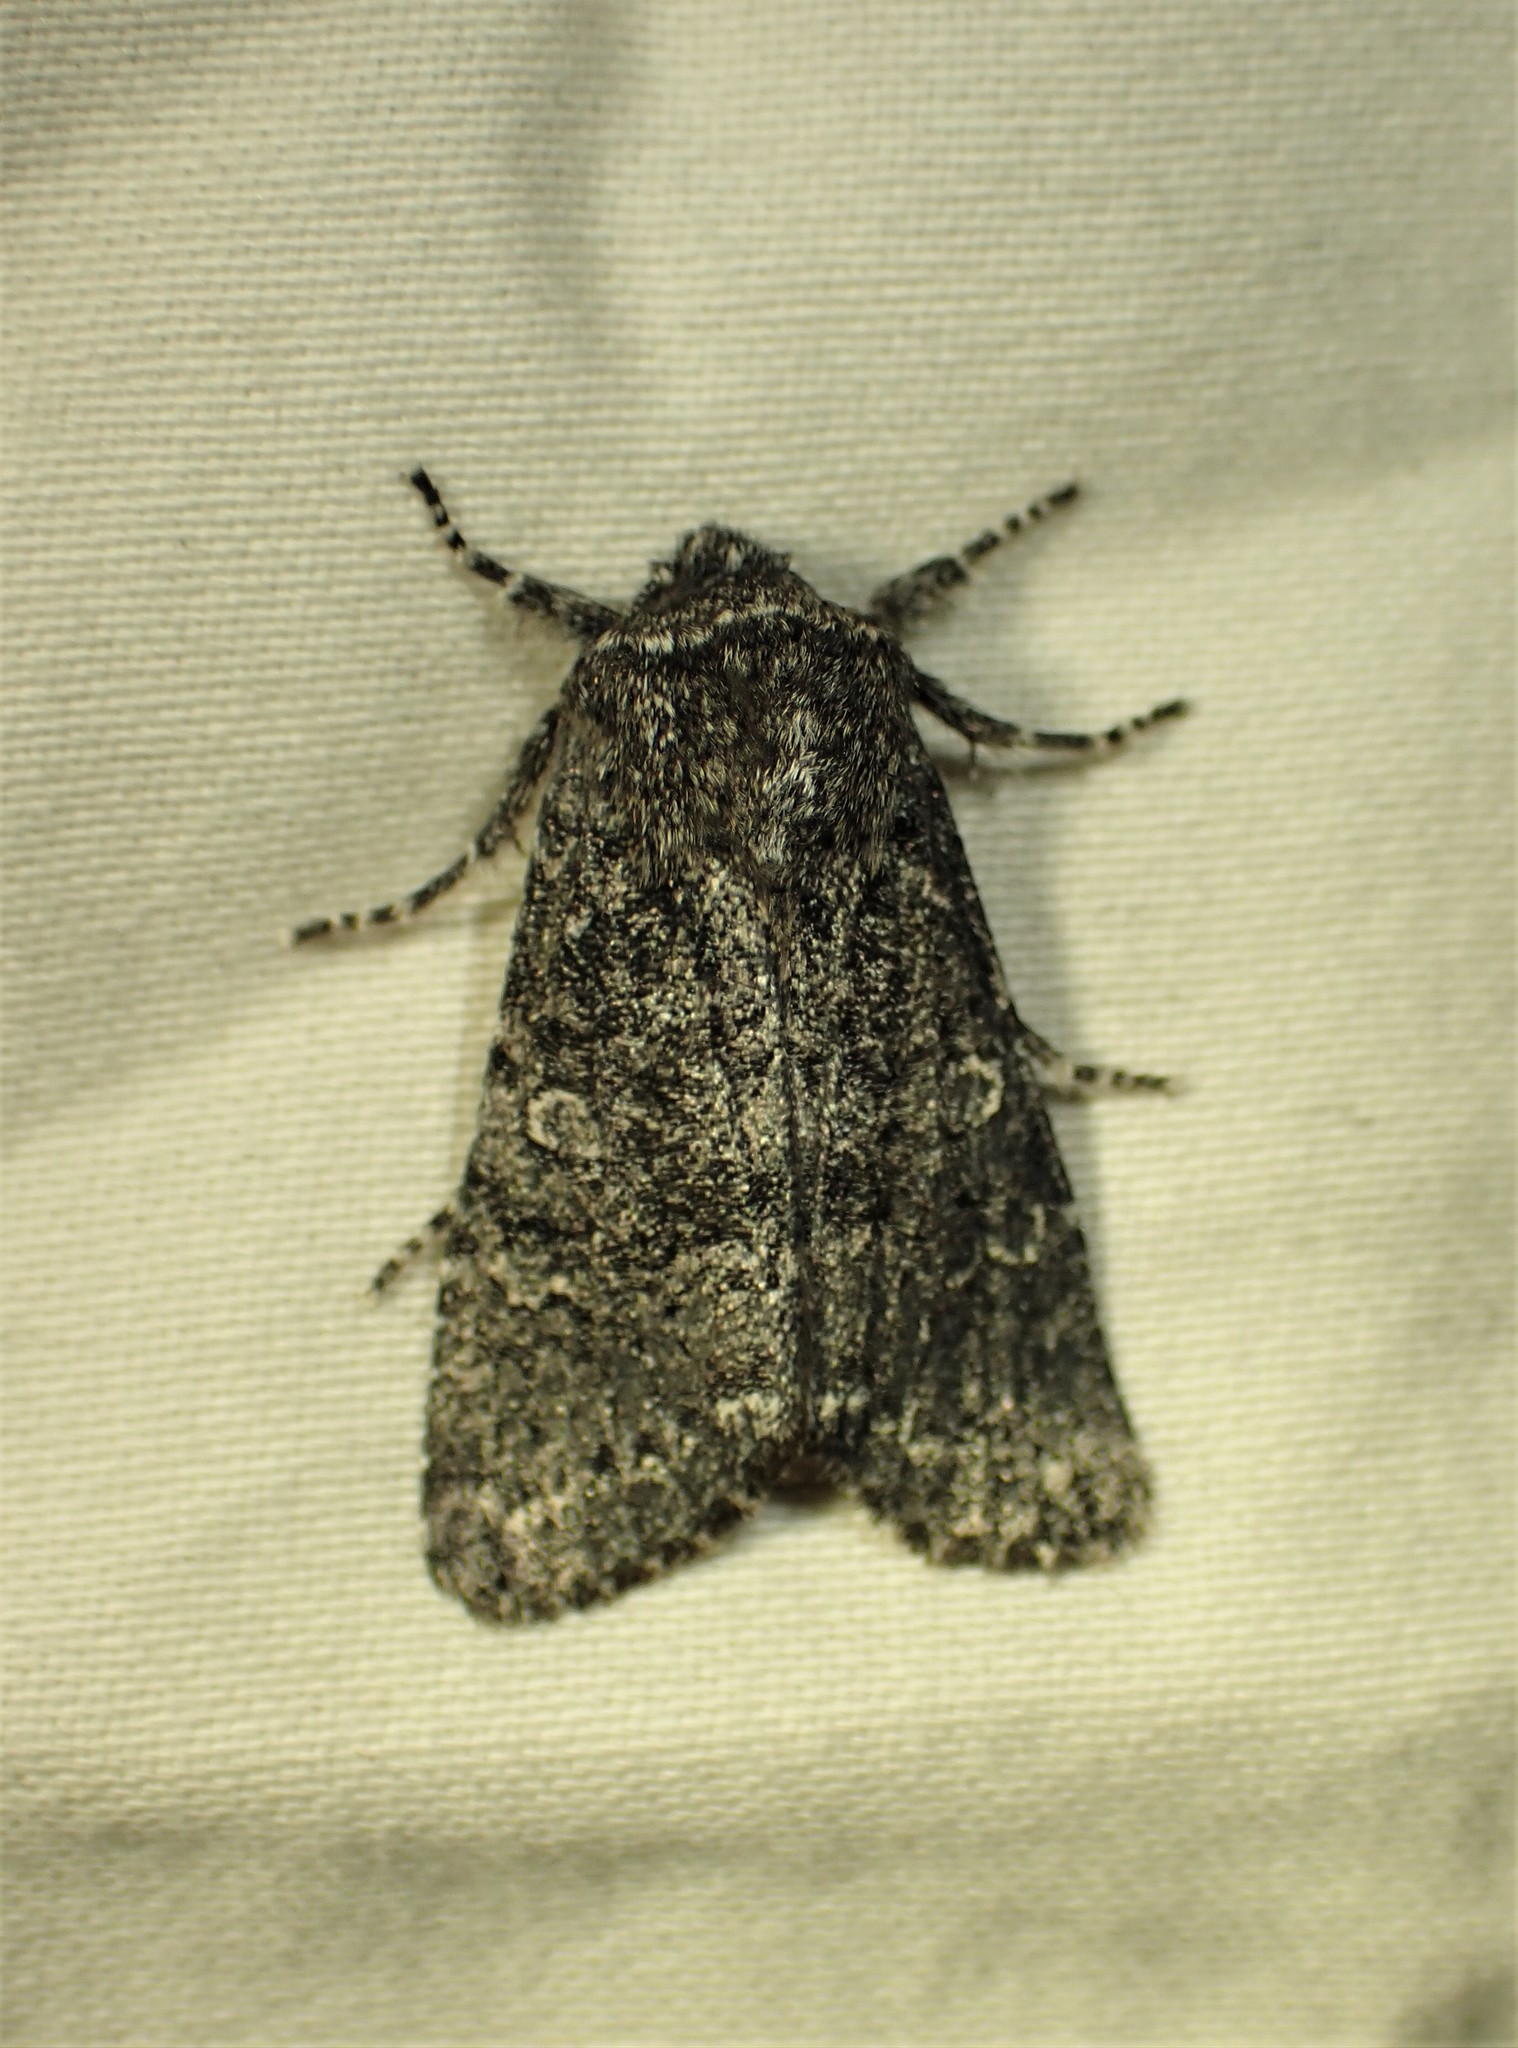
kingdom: Animalia
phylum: Arthropoda
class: Insecta
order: Lepidoptera
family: Noctuidae
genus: Egira
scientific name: Egira dolosa
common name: Lined black aspen cat.
